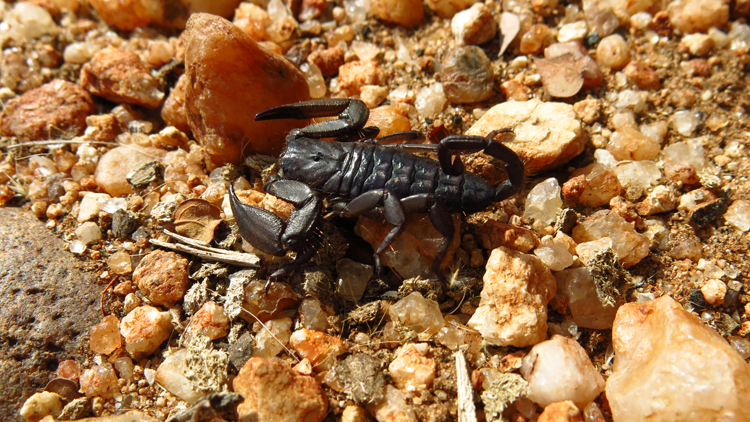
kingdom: Animalia
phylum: Arthropoda
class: Arachnida
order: Scorpiones
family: Hormuridae
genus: Hadogenes
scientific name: Hadogenes troglodytes
